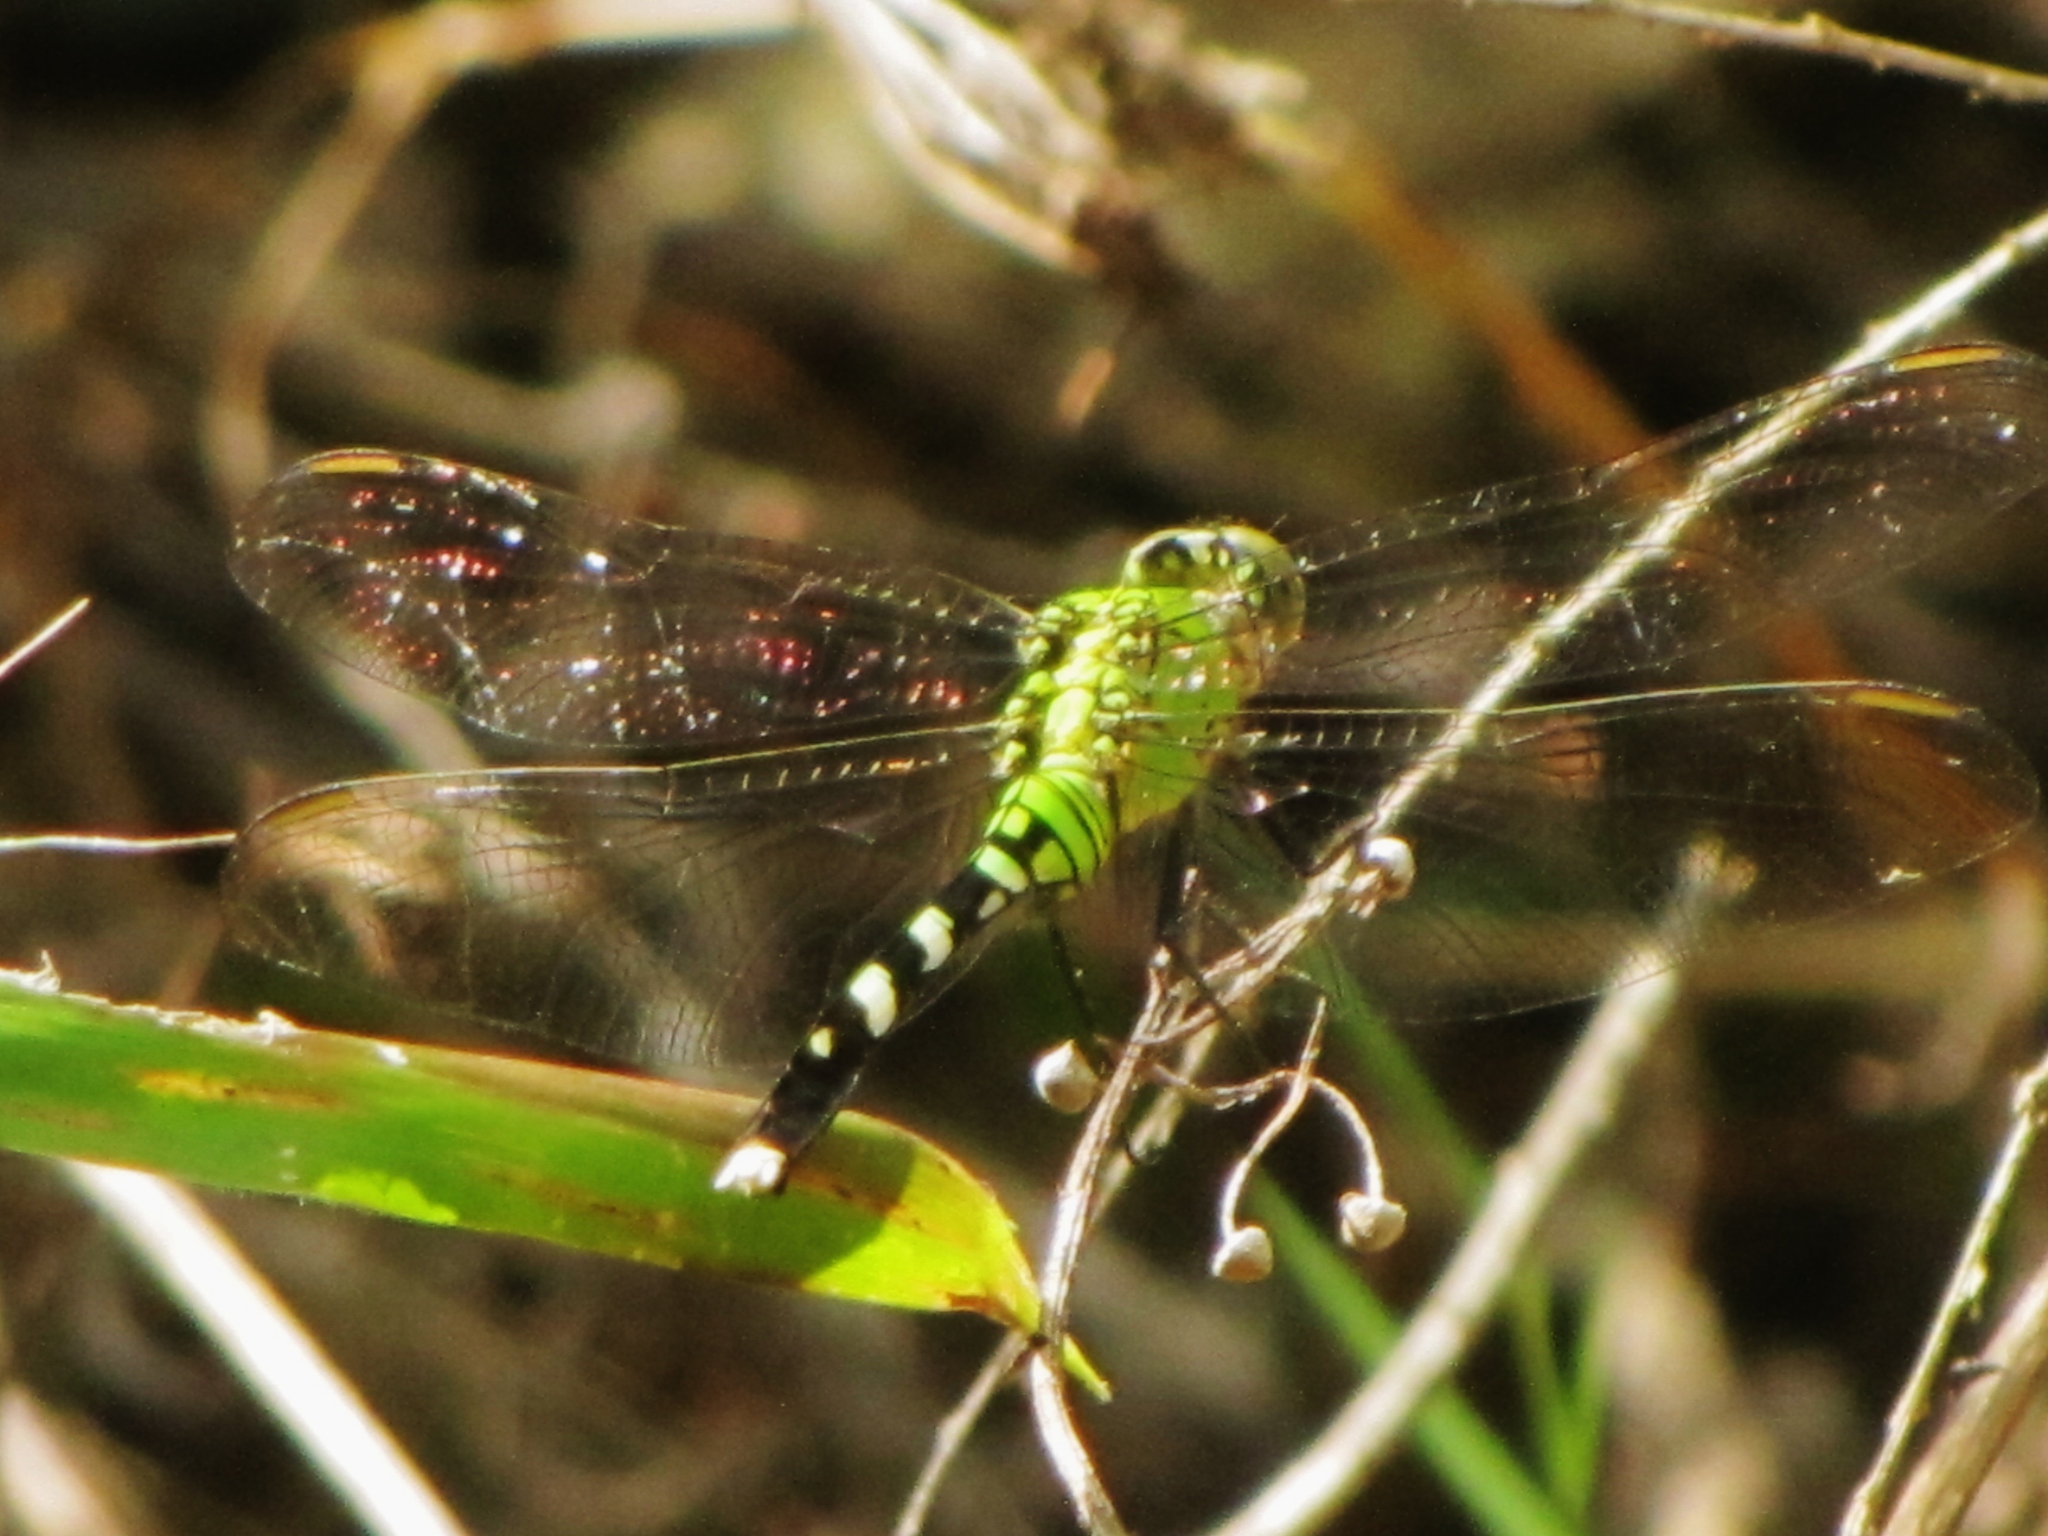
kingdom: Animalia
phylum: Arthropoda
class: Insecta
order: Odonata
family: Libellulidae
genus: Erythemis
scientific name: Erythemis simplicicollis
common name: Eastern pondhawk
